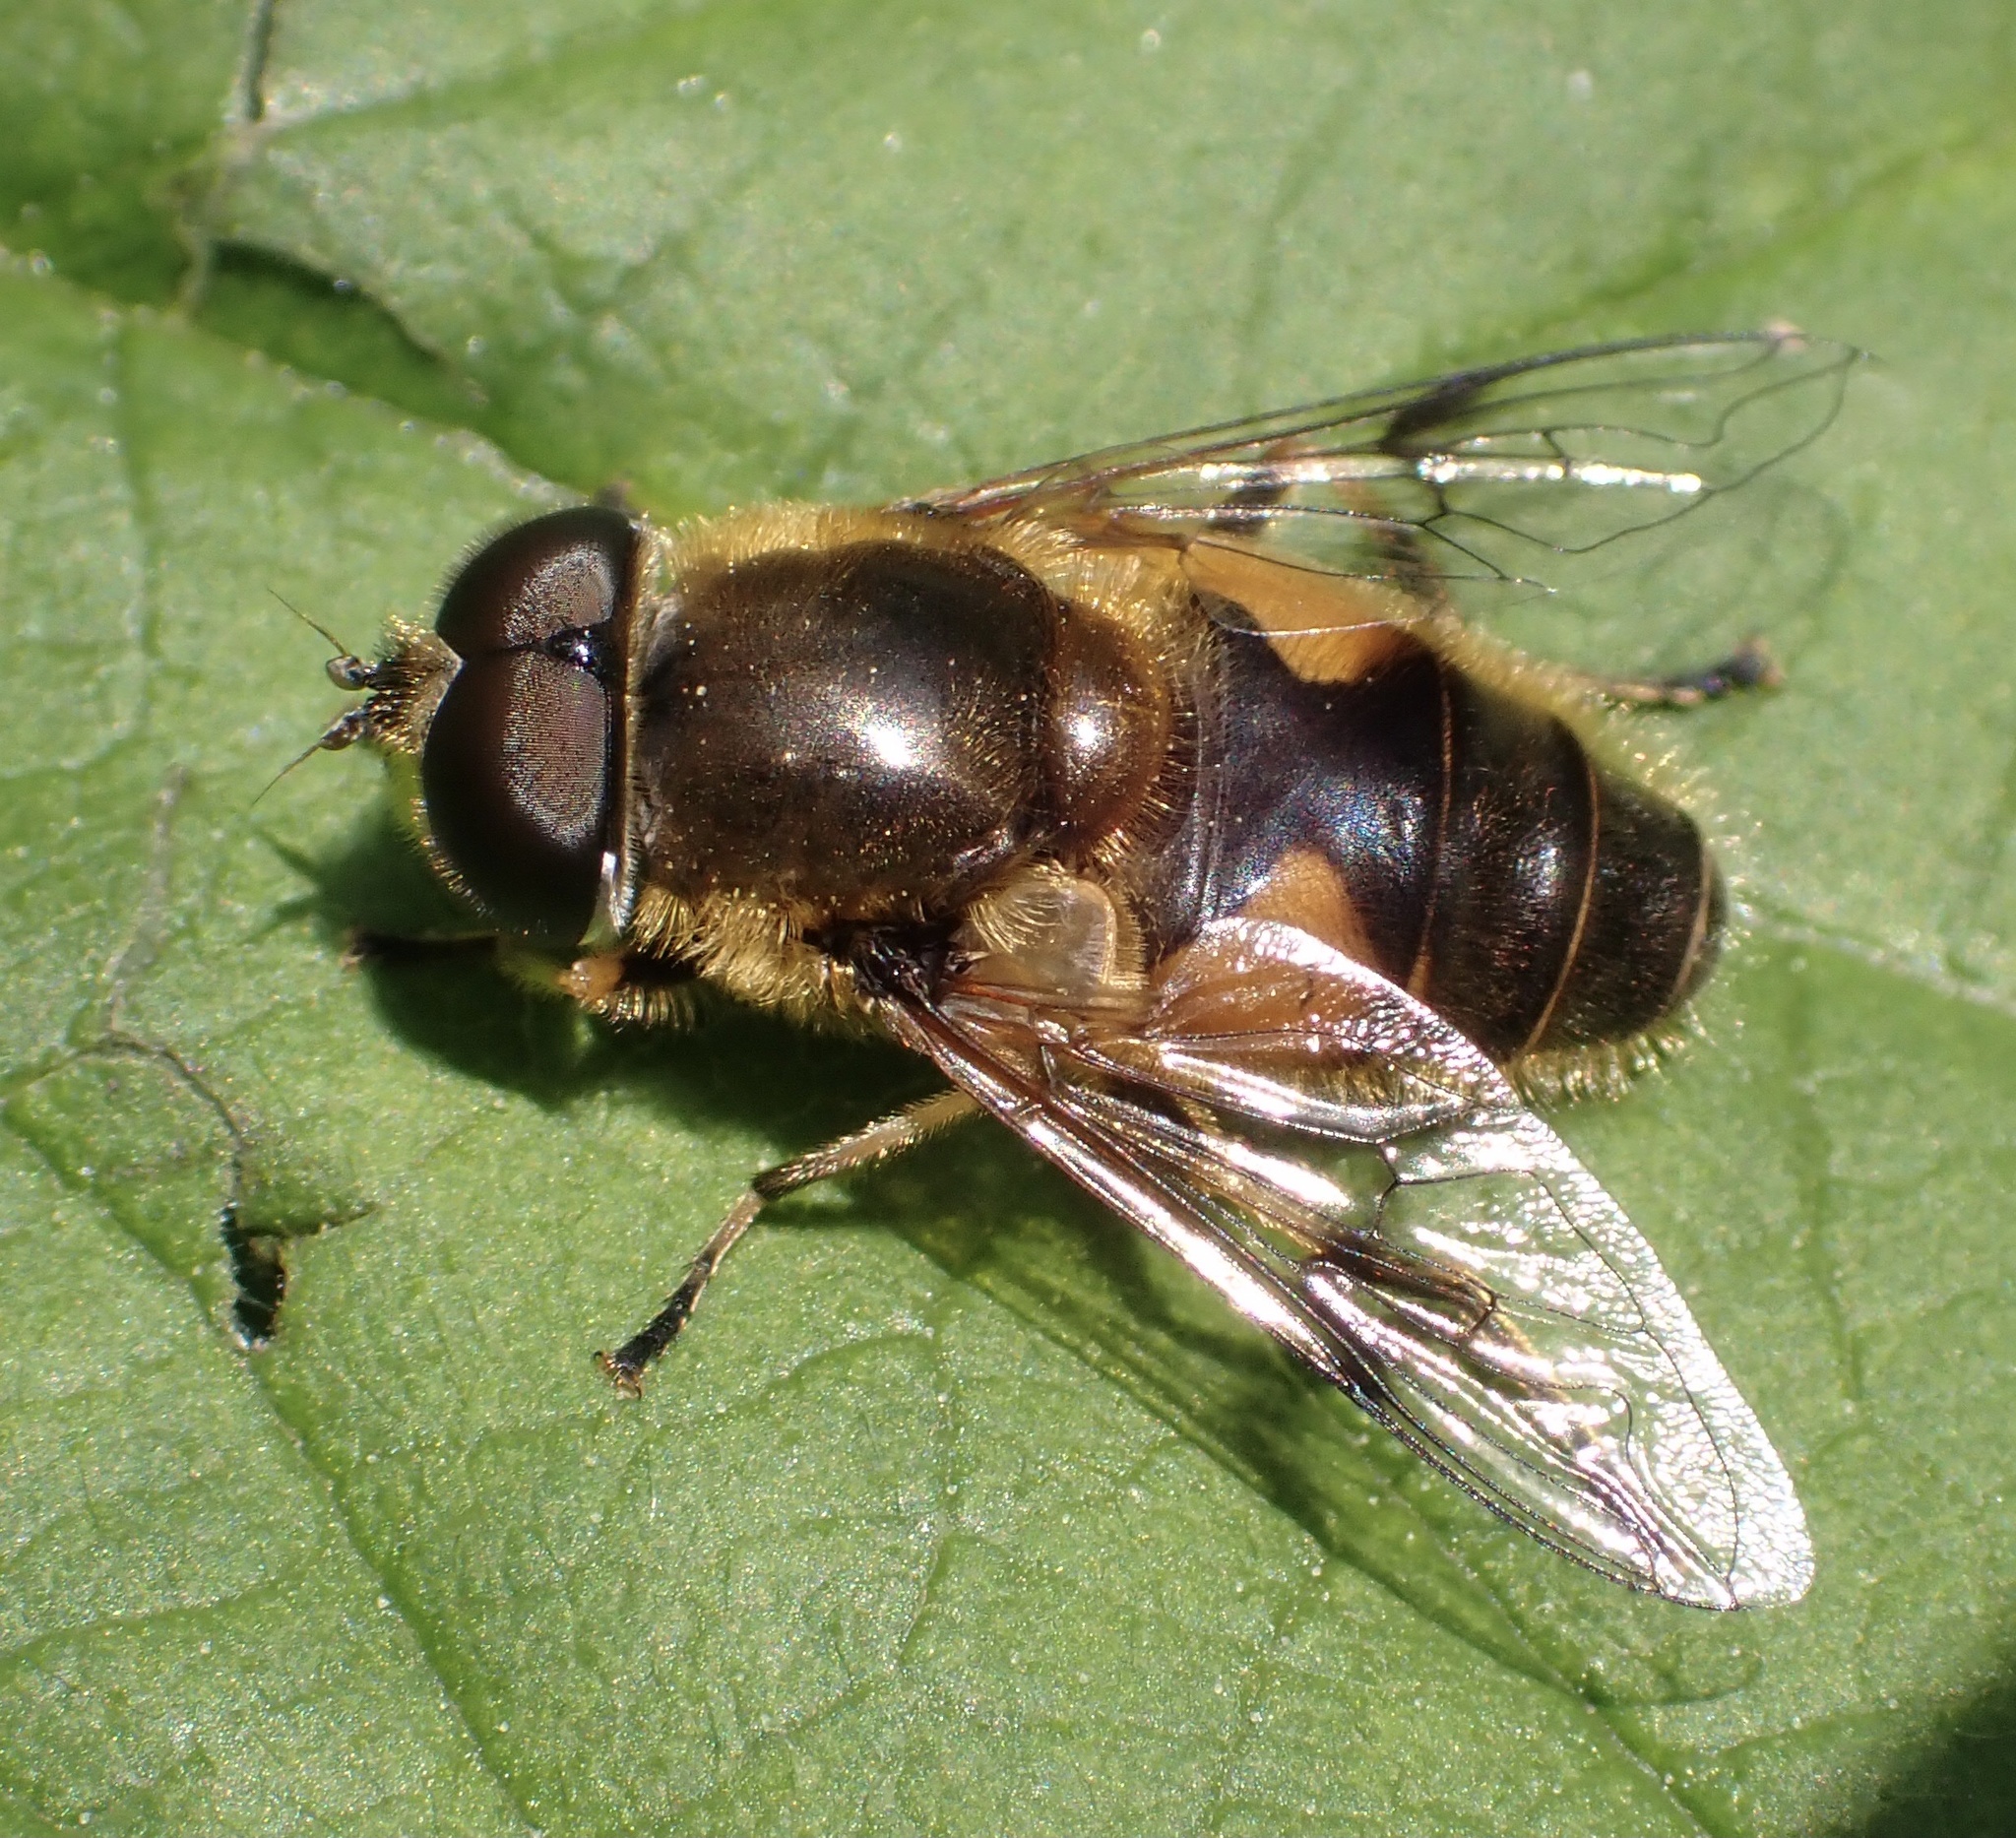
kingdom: Animalia
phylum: Arthropoda
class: Insecta
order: Diptera
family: Syrphidae
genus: Cheilosia
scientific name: Cheilosia morio
